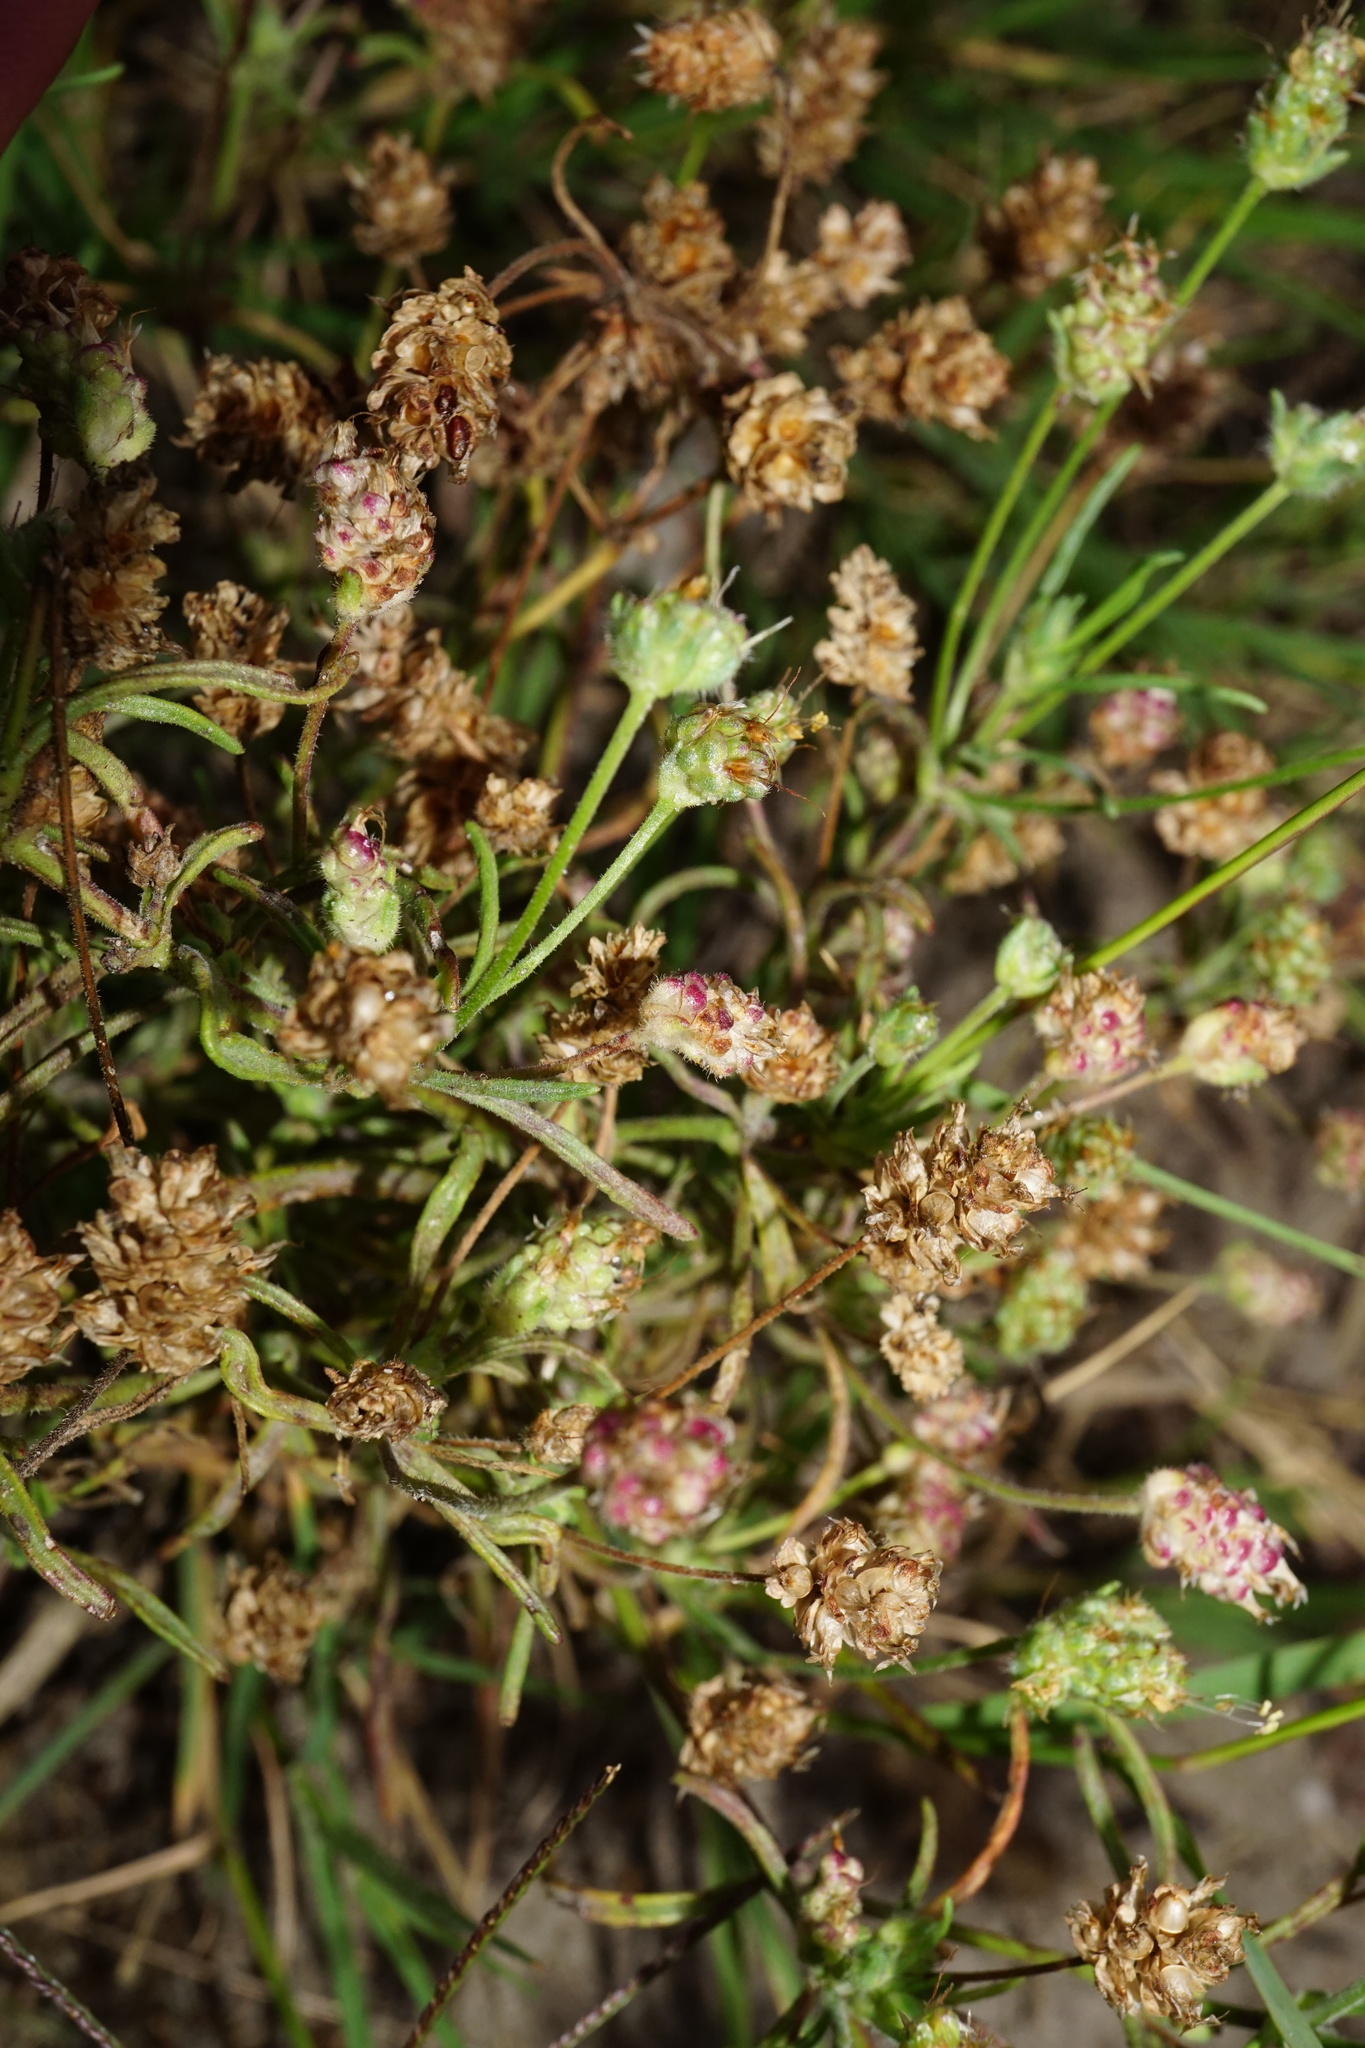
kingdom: Plantae
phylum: Tracheophyta
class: Magnoliopsida
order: Lamiales
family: Plantaginaceae
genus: Plantago
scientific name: Plantago arenaria
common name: Branched plantain
